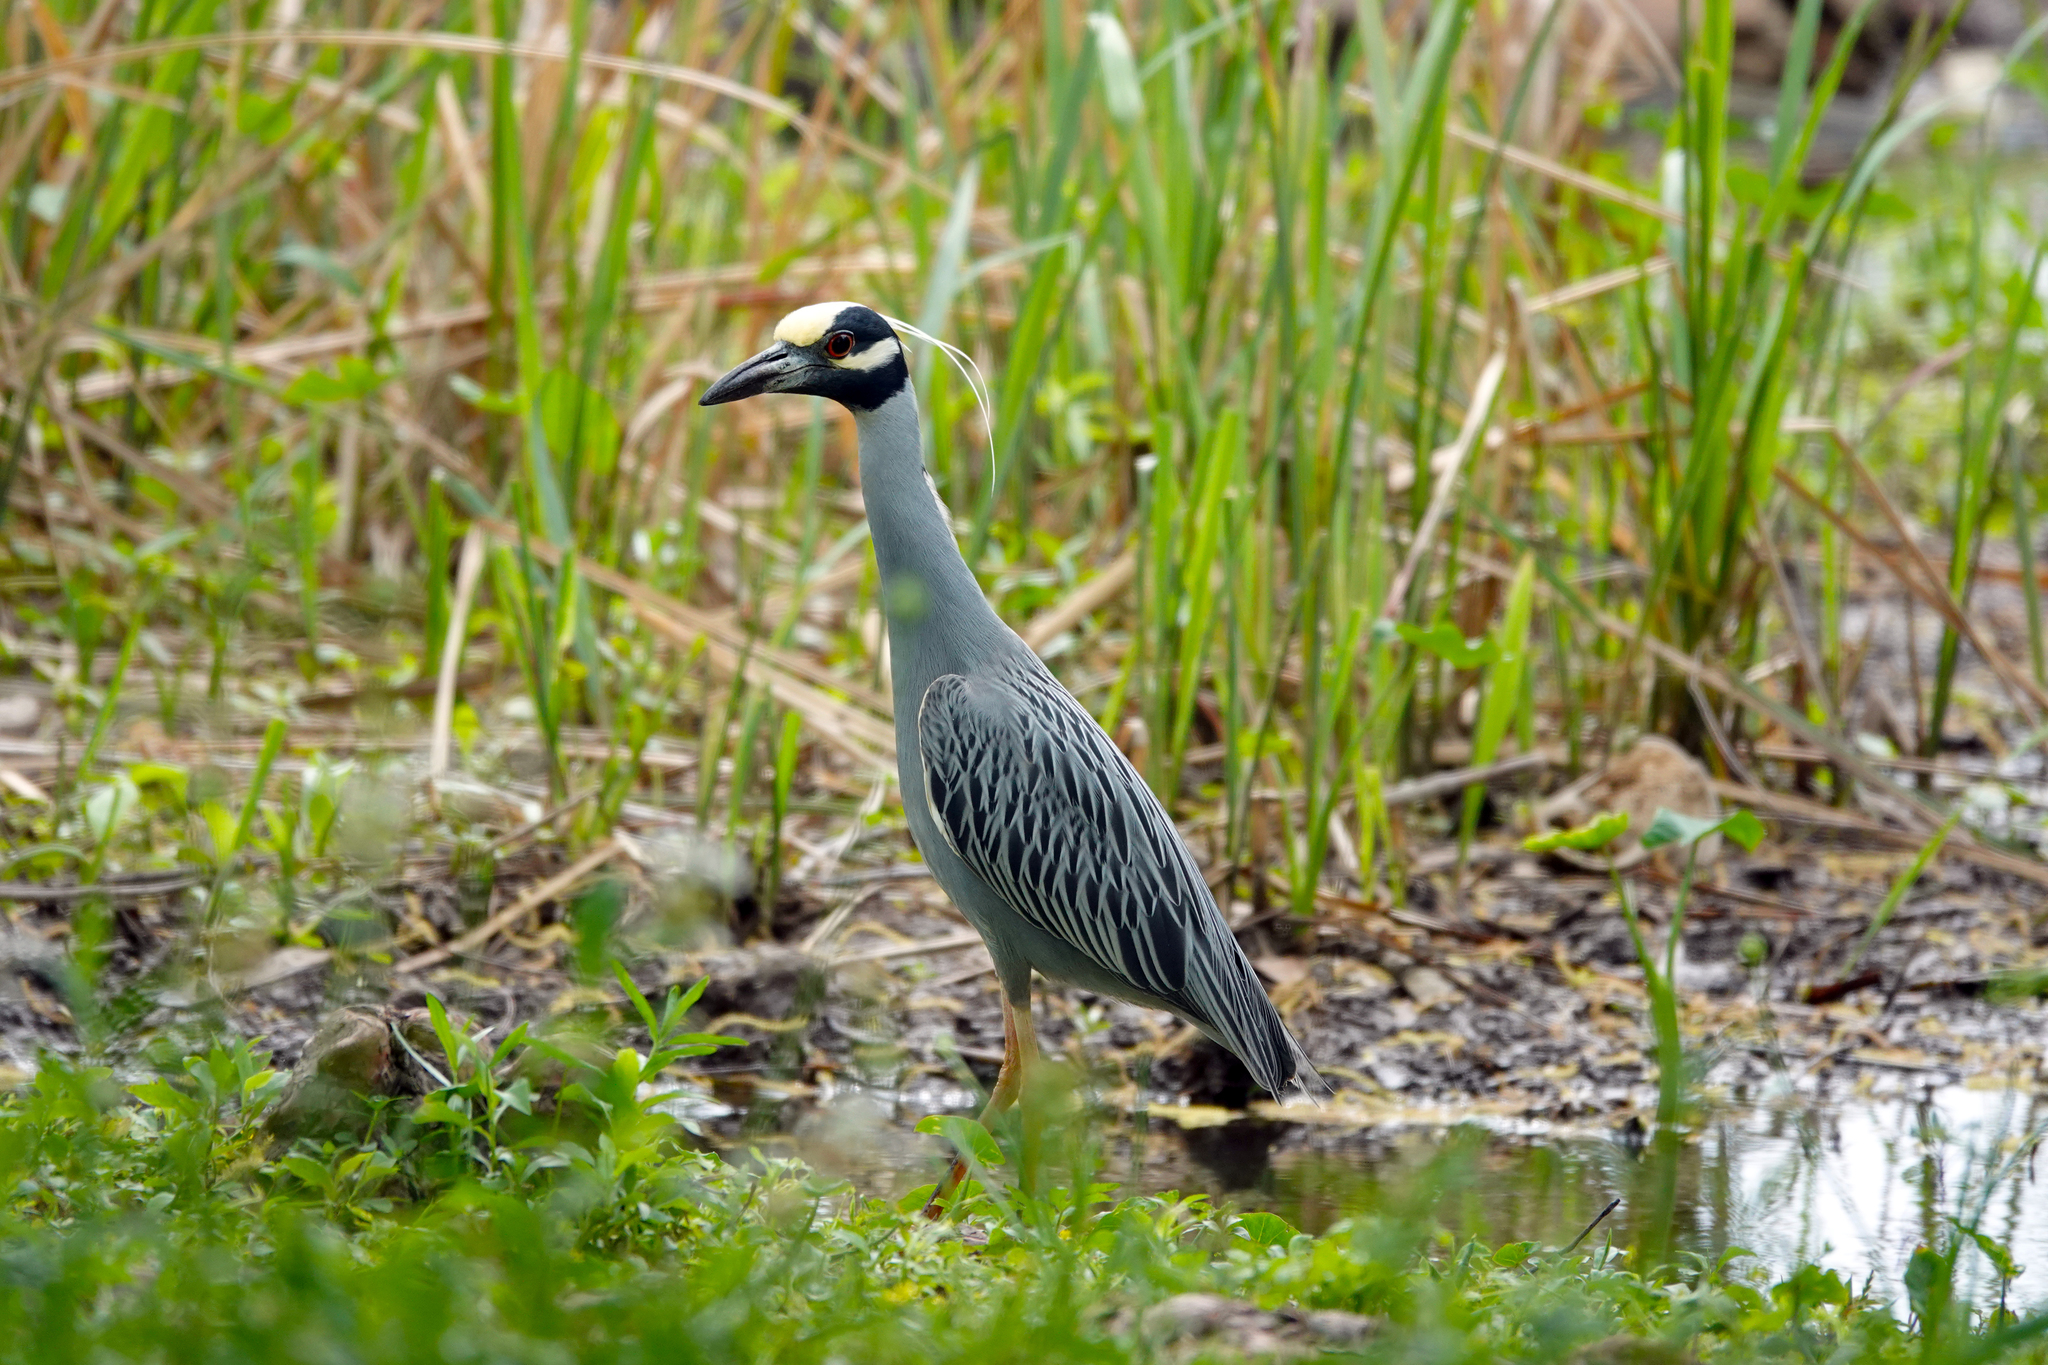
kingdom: Animalia
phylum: Chordata
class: Aves
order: Pelecaniformes
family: Ardeidae
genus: Nyctanassa
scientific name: Nyctanassa violacea
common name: Yellow-crowned night heron
